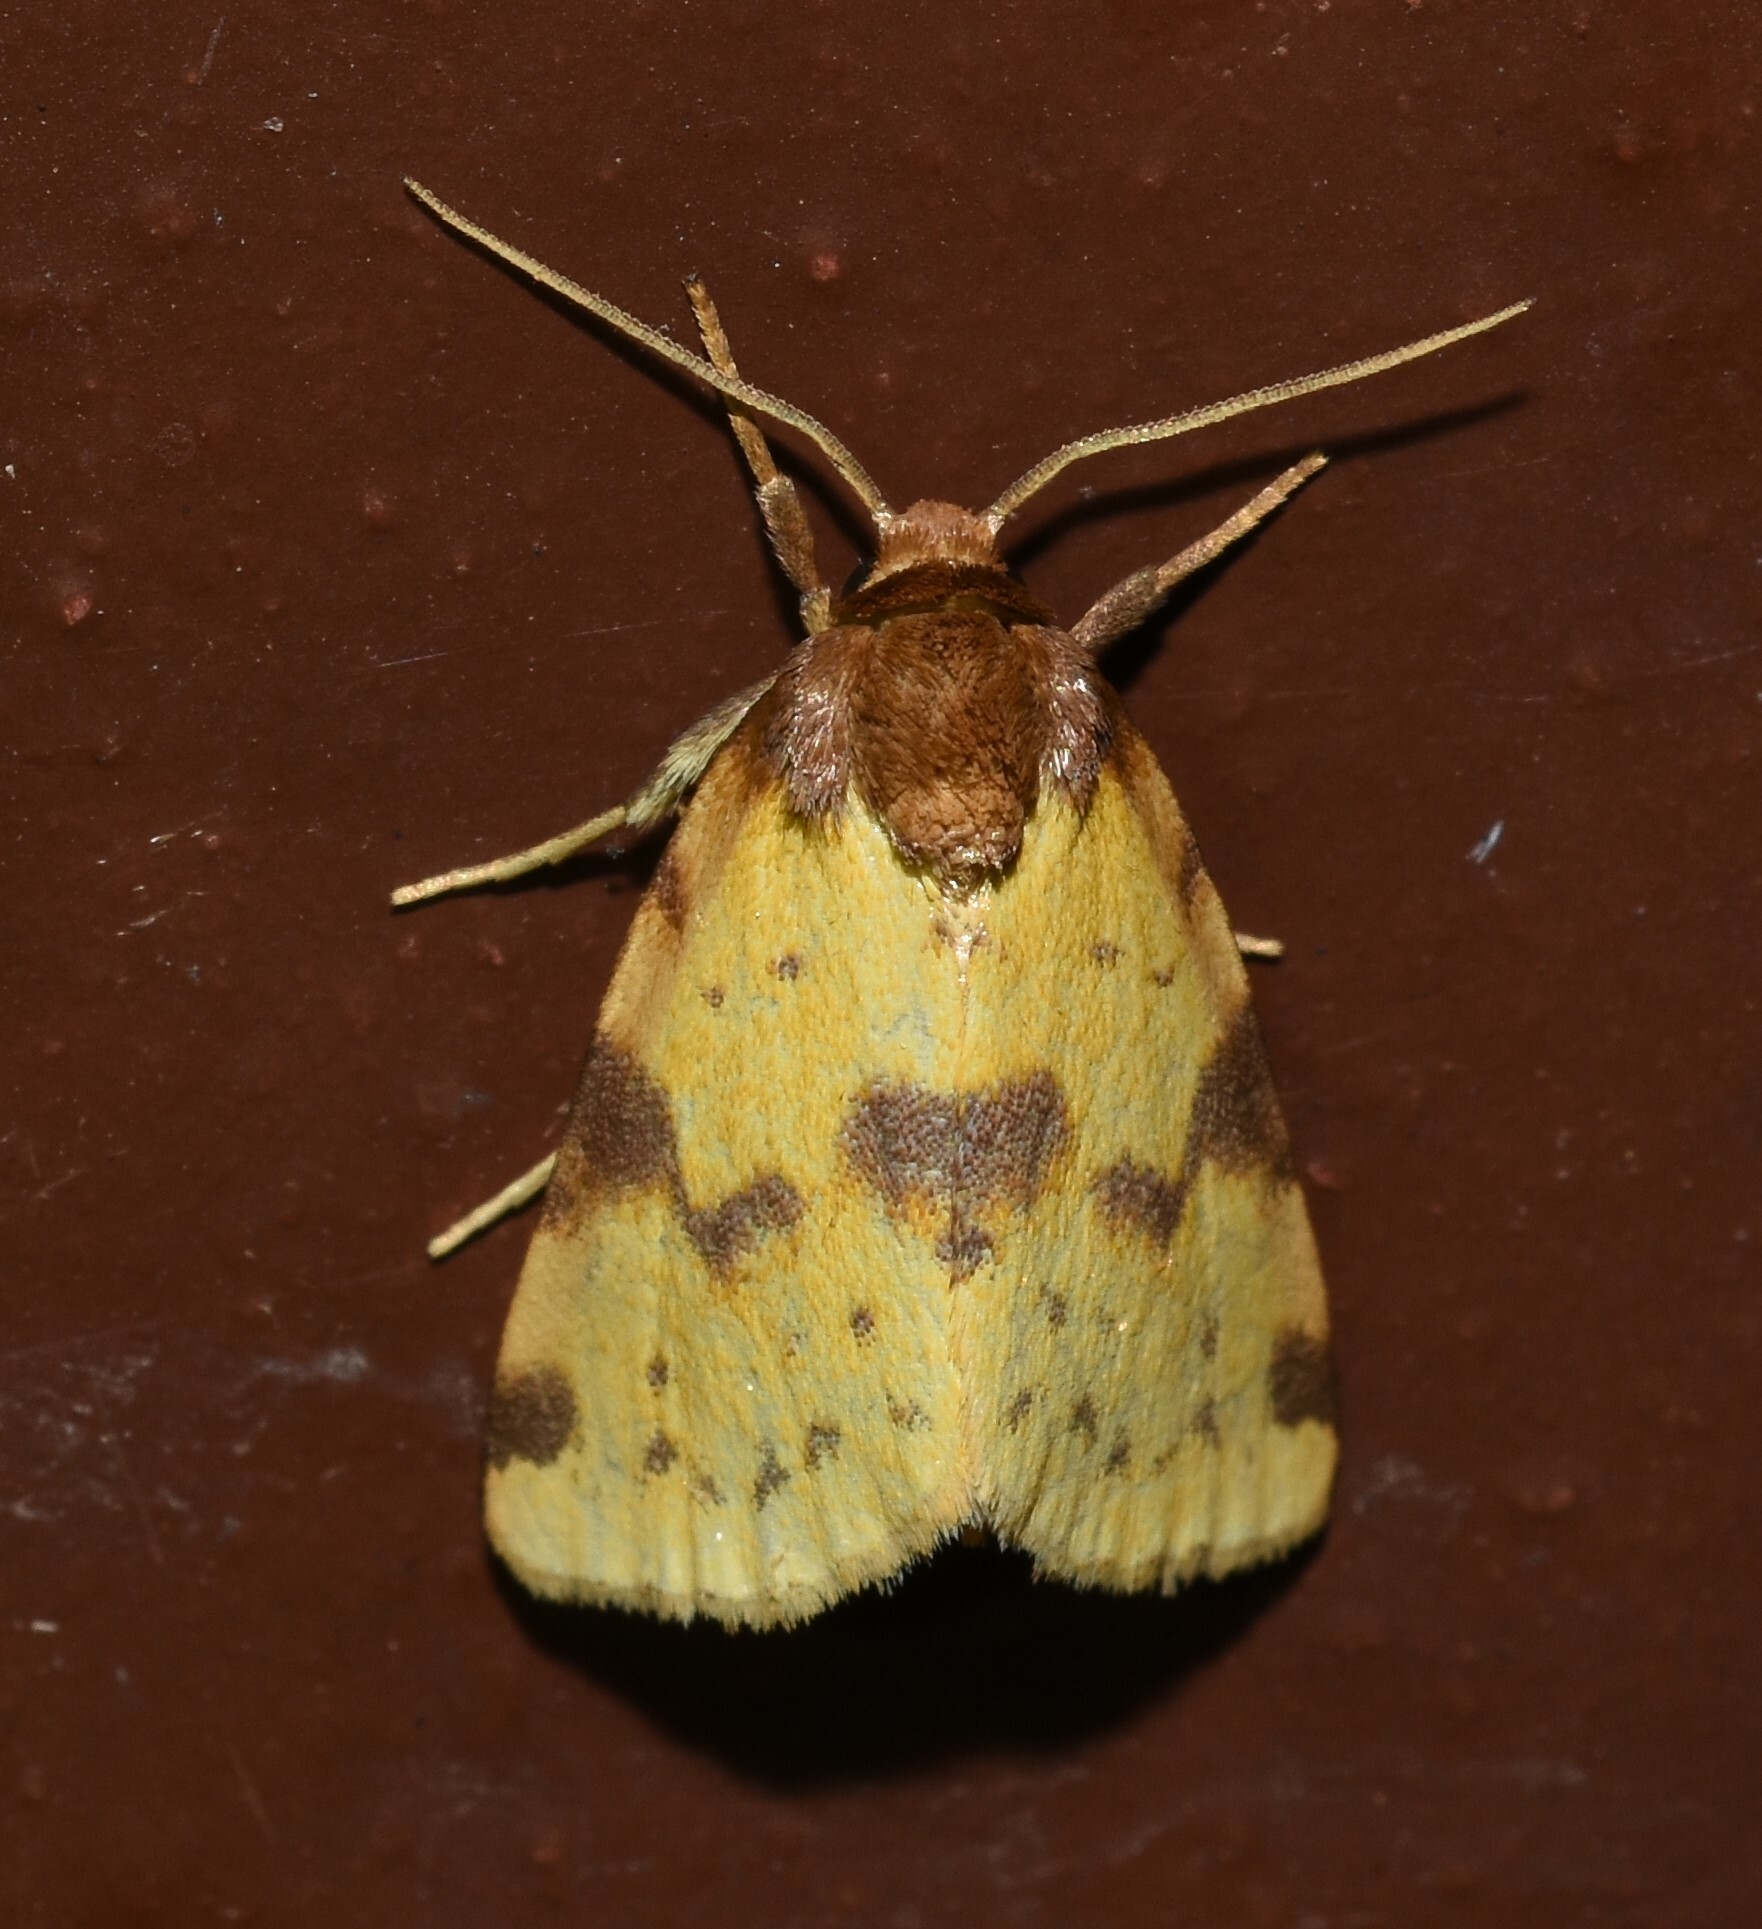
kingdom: Animalia
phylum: Arthropoda
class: Insecta
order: Lepidoptera
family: Noctuidae
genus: Azenia
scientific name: Azenia obtusa
